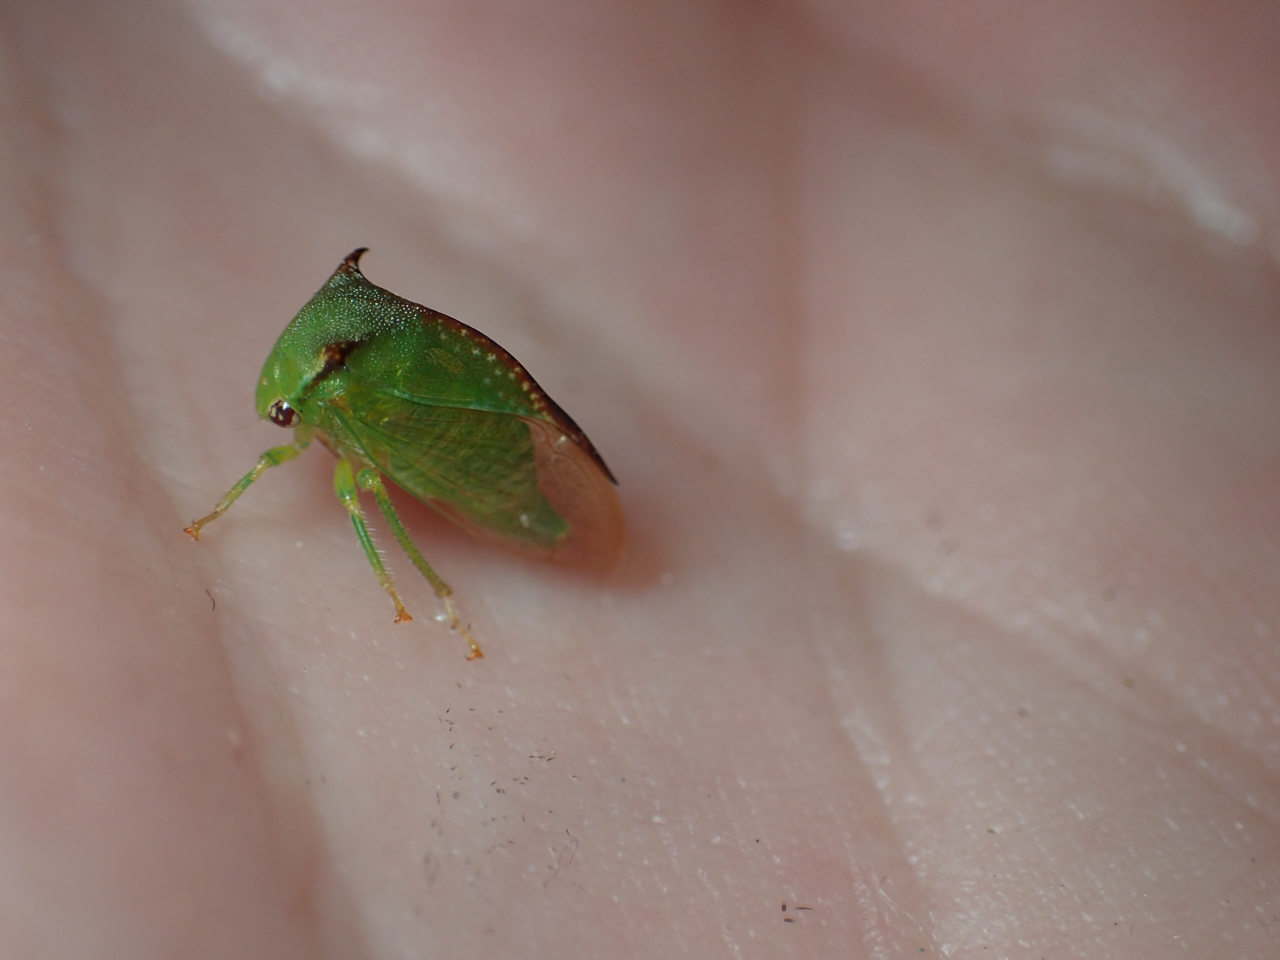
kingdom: Animalia
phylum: Arthropoda
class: Insecta
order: Hemiptera
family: Membracidae
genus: Stictocephala
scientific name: Stictocephala militaris
